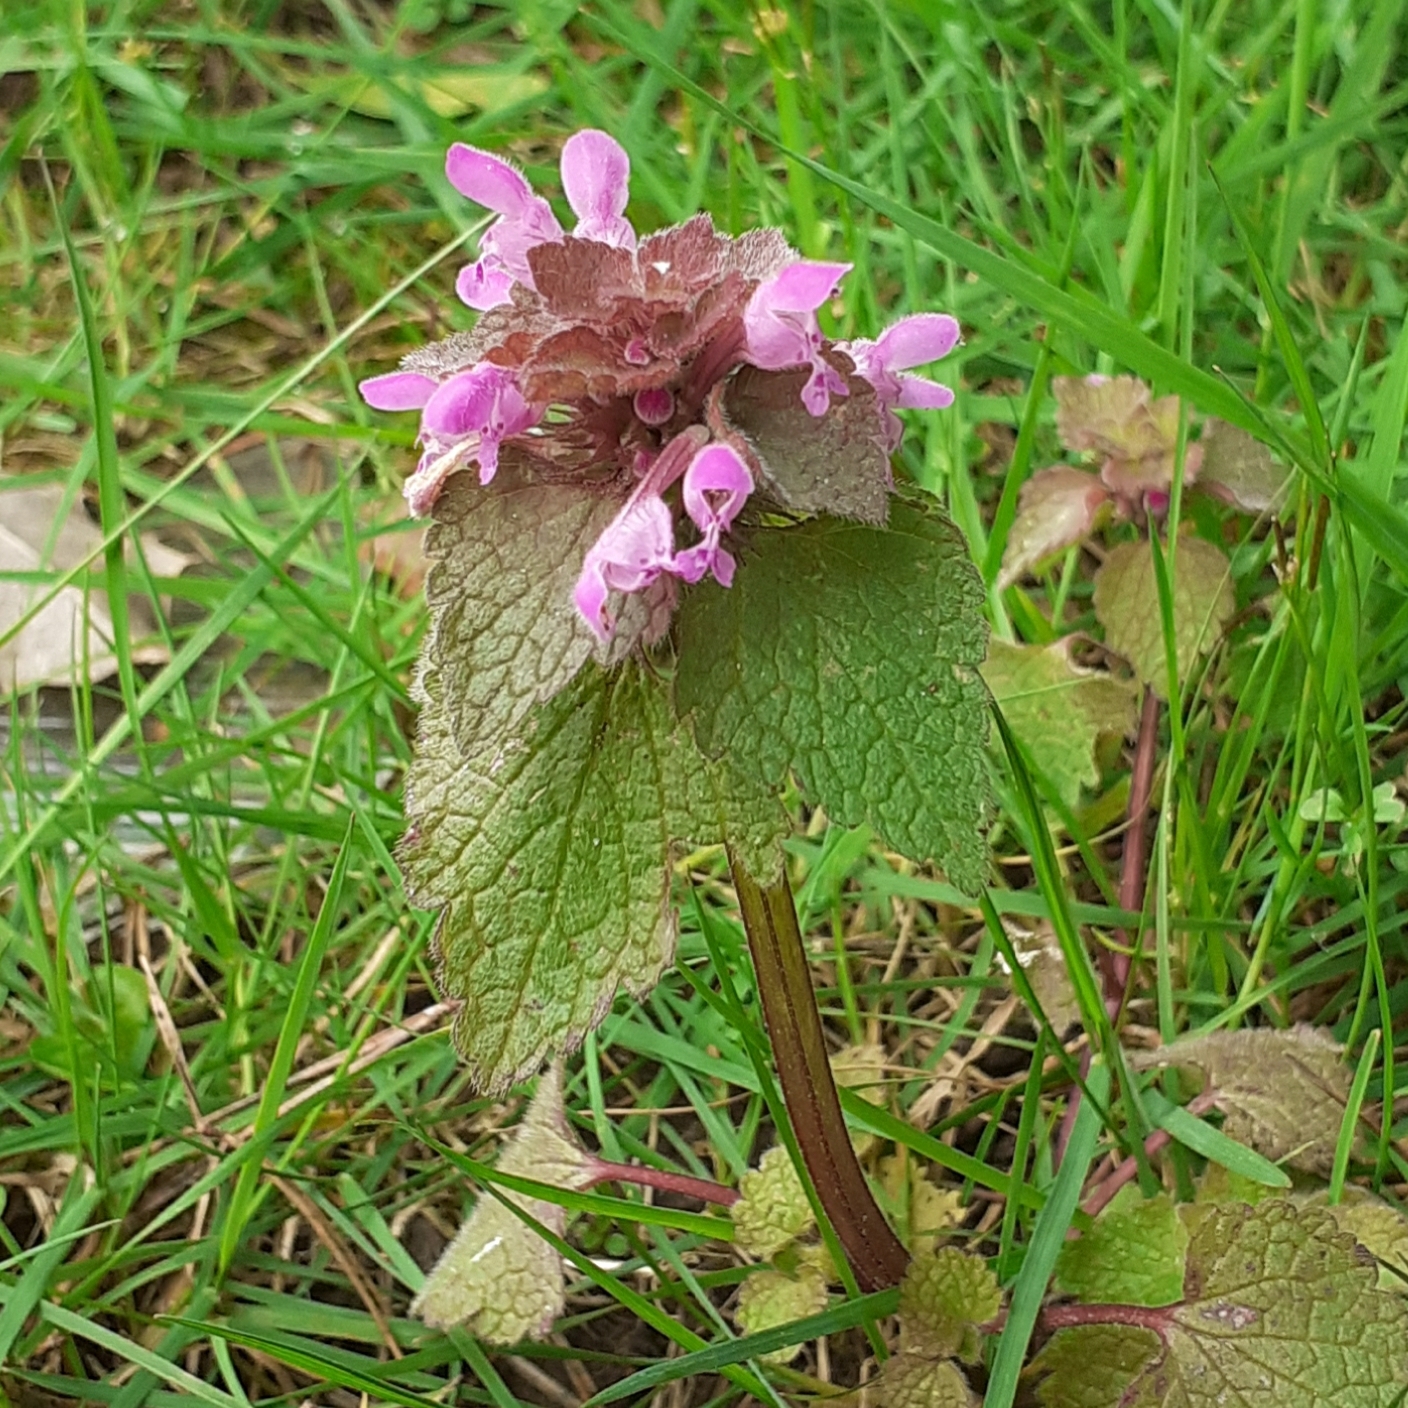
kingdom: Plantae
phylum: Tracheophyta
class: Magnoliopsida
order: Lamiales
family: Lamiaceae
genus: Lamium
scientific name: Lamium purpureum
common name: Red dead-nettle
